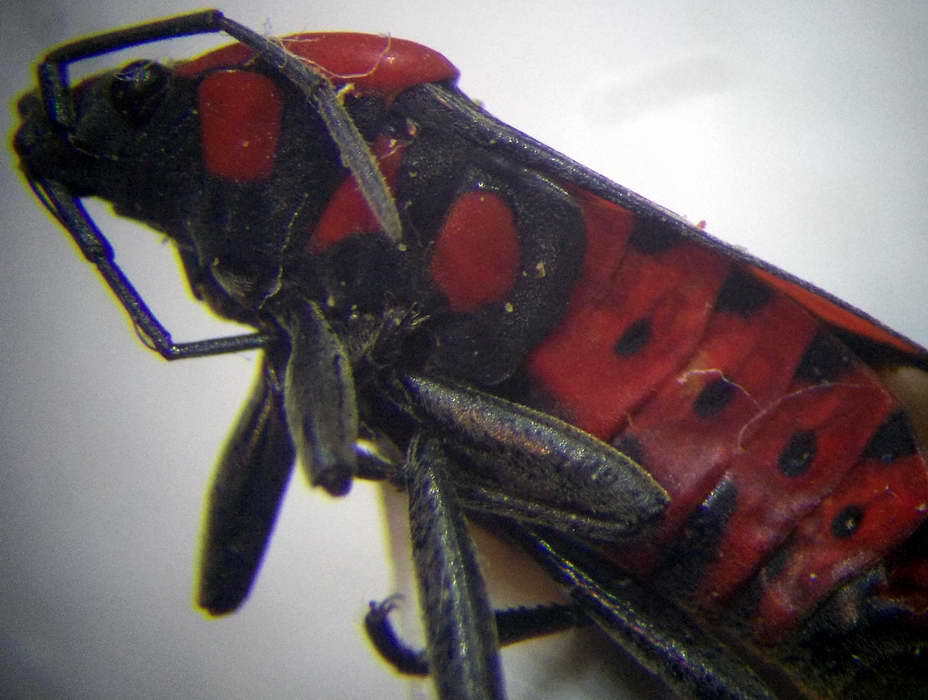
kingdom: Animalia
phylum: Arthropoda
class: Insecta
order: Hemiptera
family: Lygaeidae
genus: Spilostethus
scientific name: Spilostethus saxatilis
